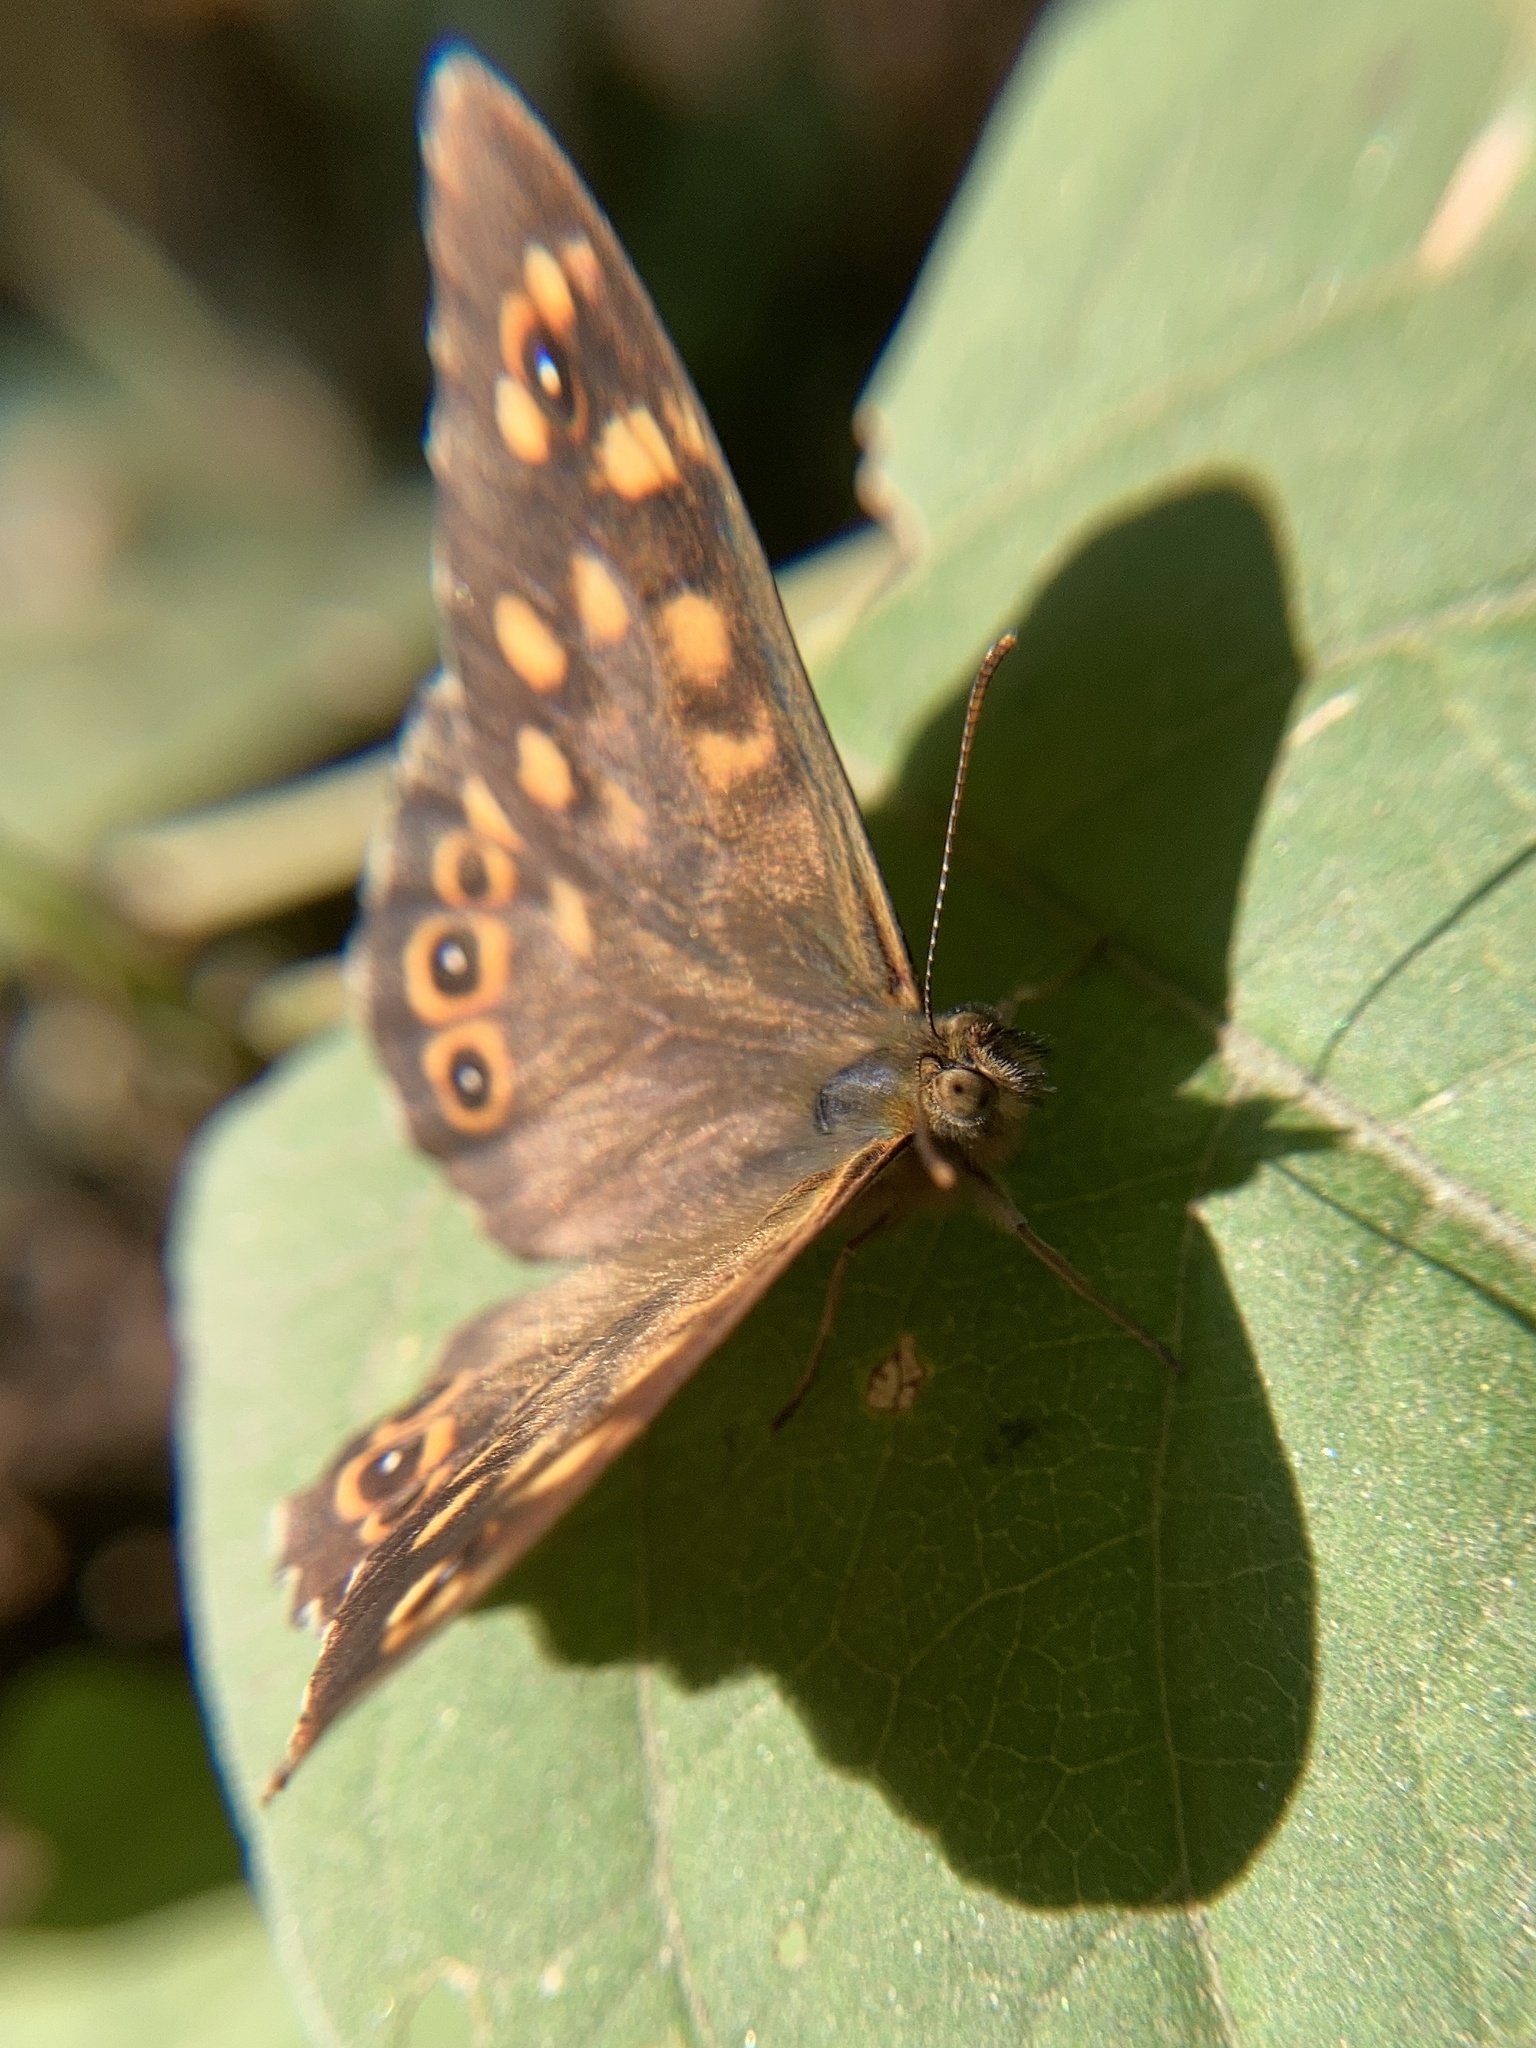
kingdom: Animalia
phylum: Arthropoda
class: Insecta
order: Lepidoptera
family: Nymphalidae
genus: Pararge
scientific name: Pararge aegeria
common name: Speckled wood
